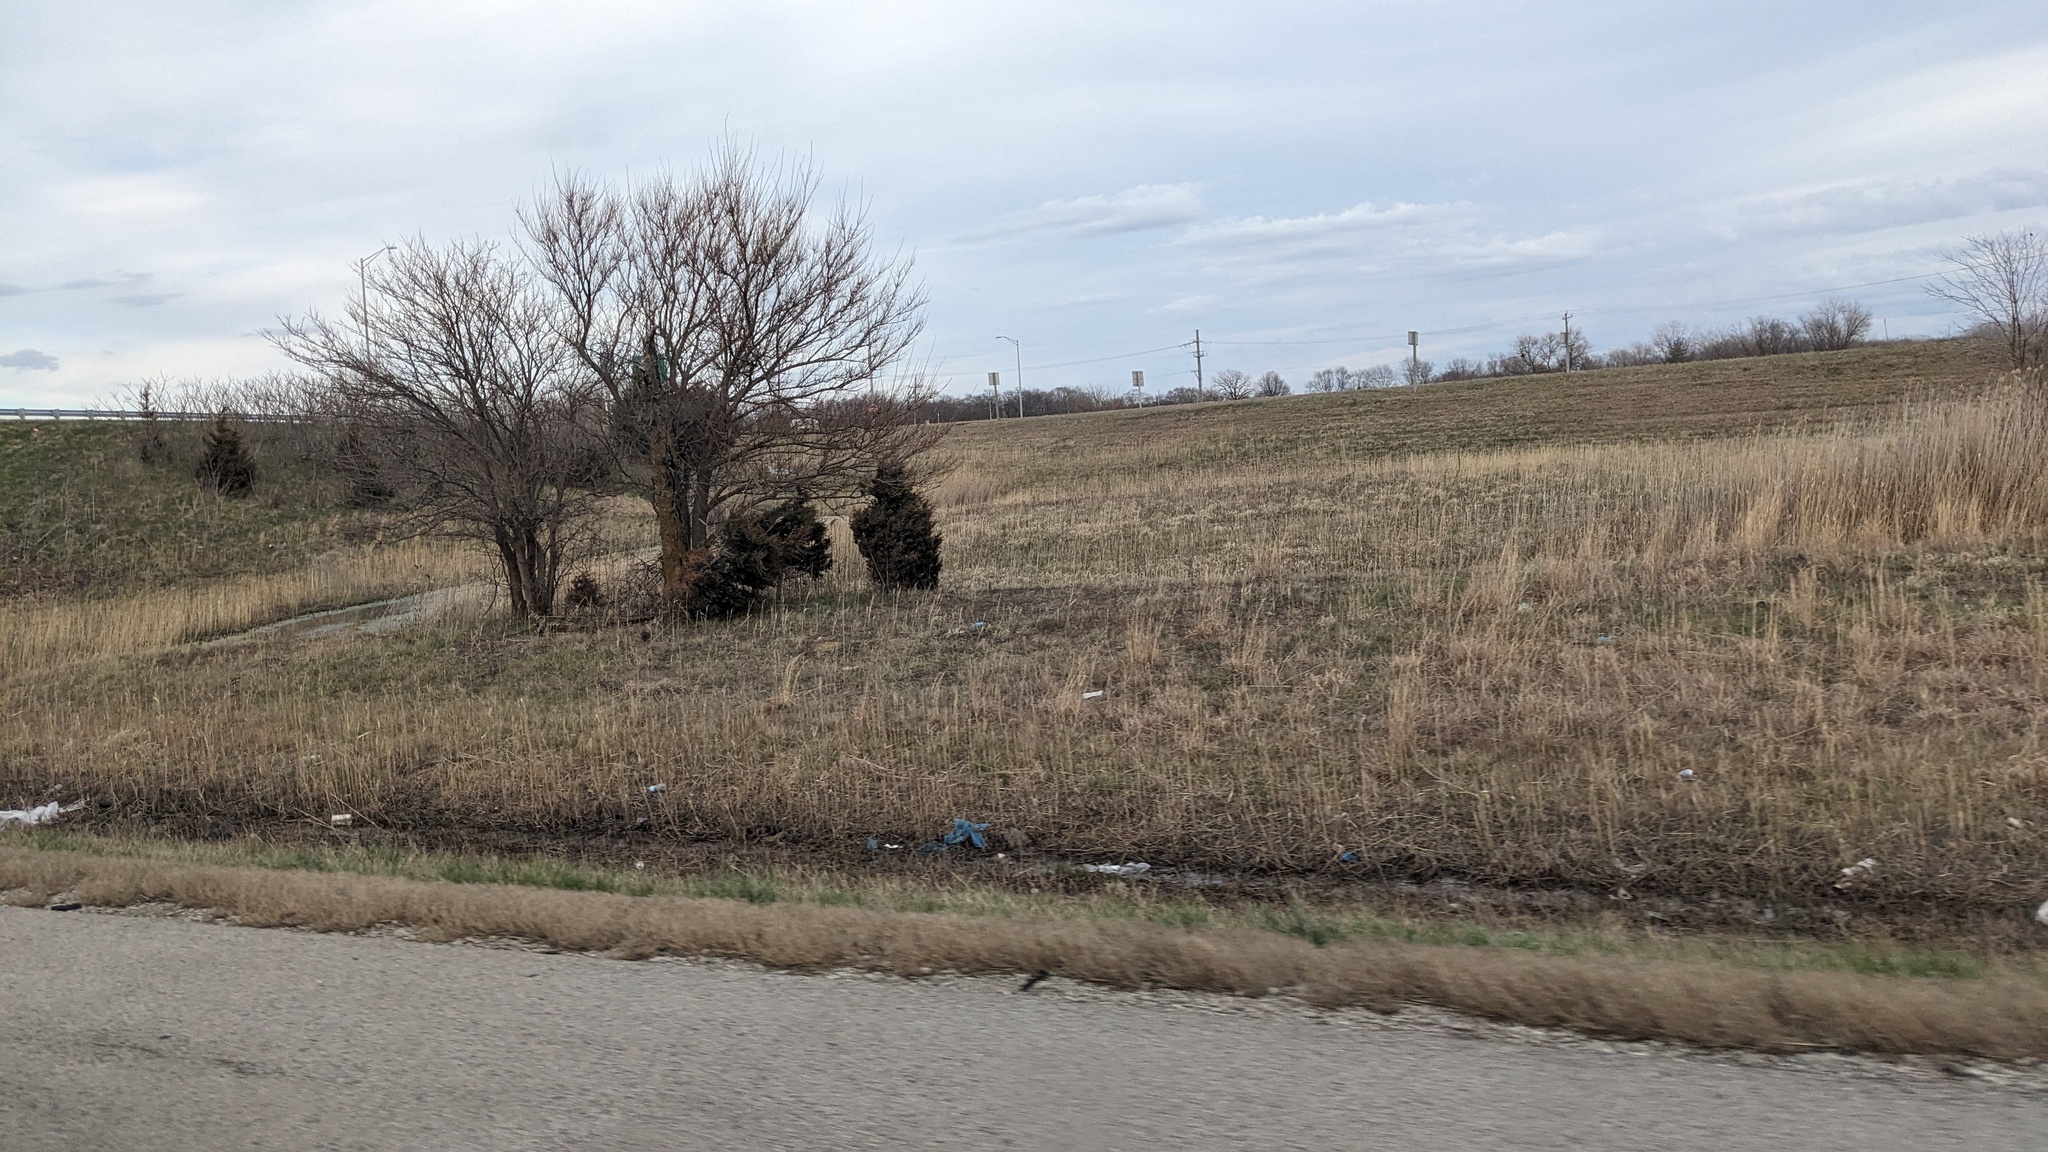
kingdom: Plantae
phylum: Tracheophyta
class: Pinopsida
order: Pinales
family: Cupressaceae
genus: Juniperus
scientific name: Juniperus virginiana
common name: Red juniper
